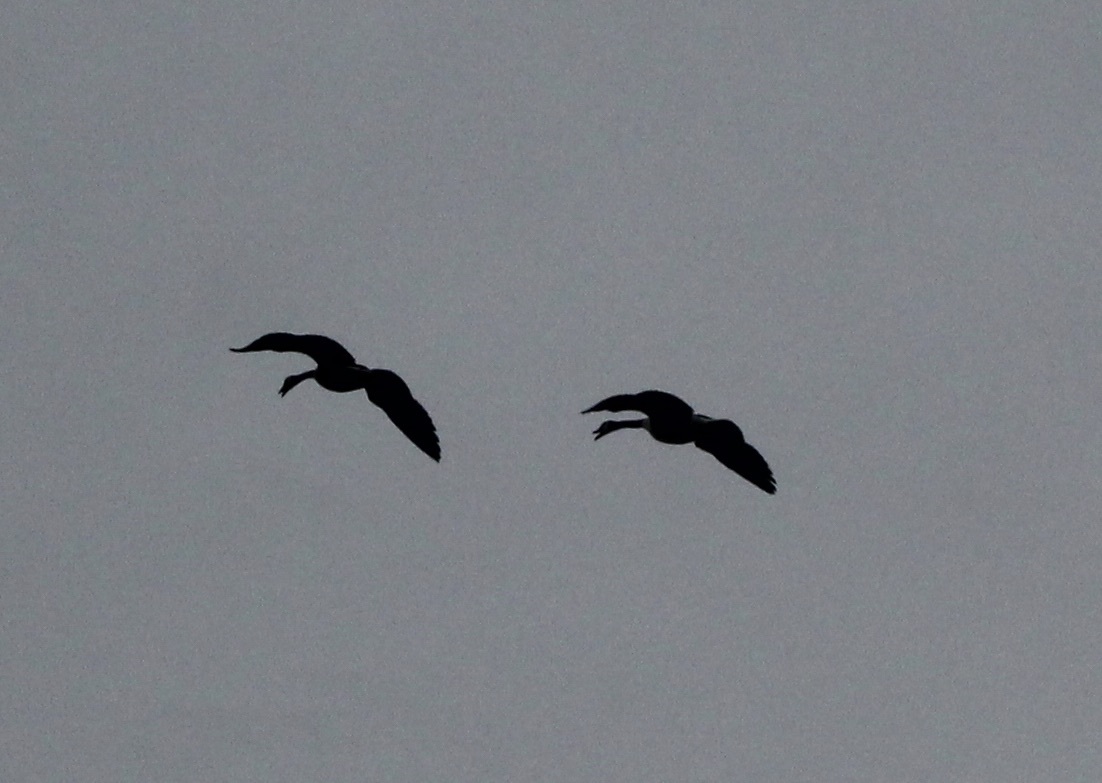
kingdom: Animalia
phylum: Chordata
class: Aves
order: Anseriformes
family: Anatidae
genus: Branta
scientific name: Branta canadensis
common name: Canada goose
